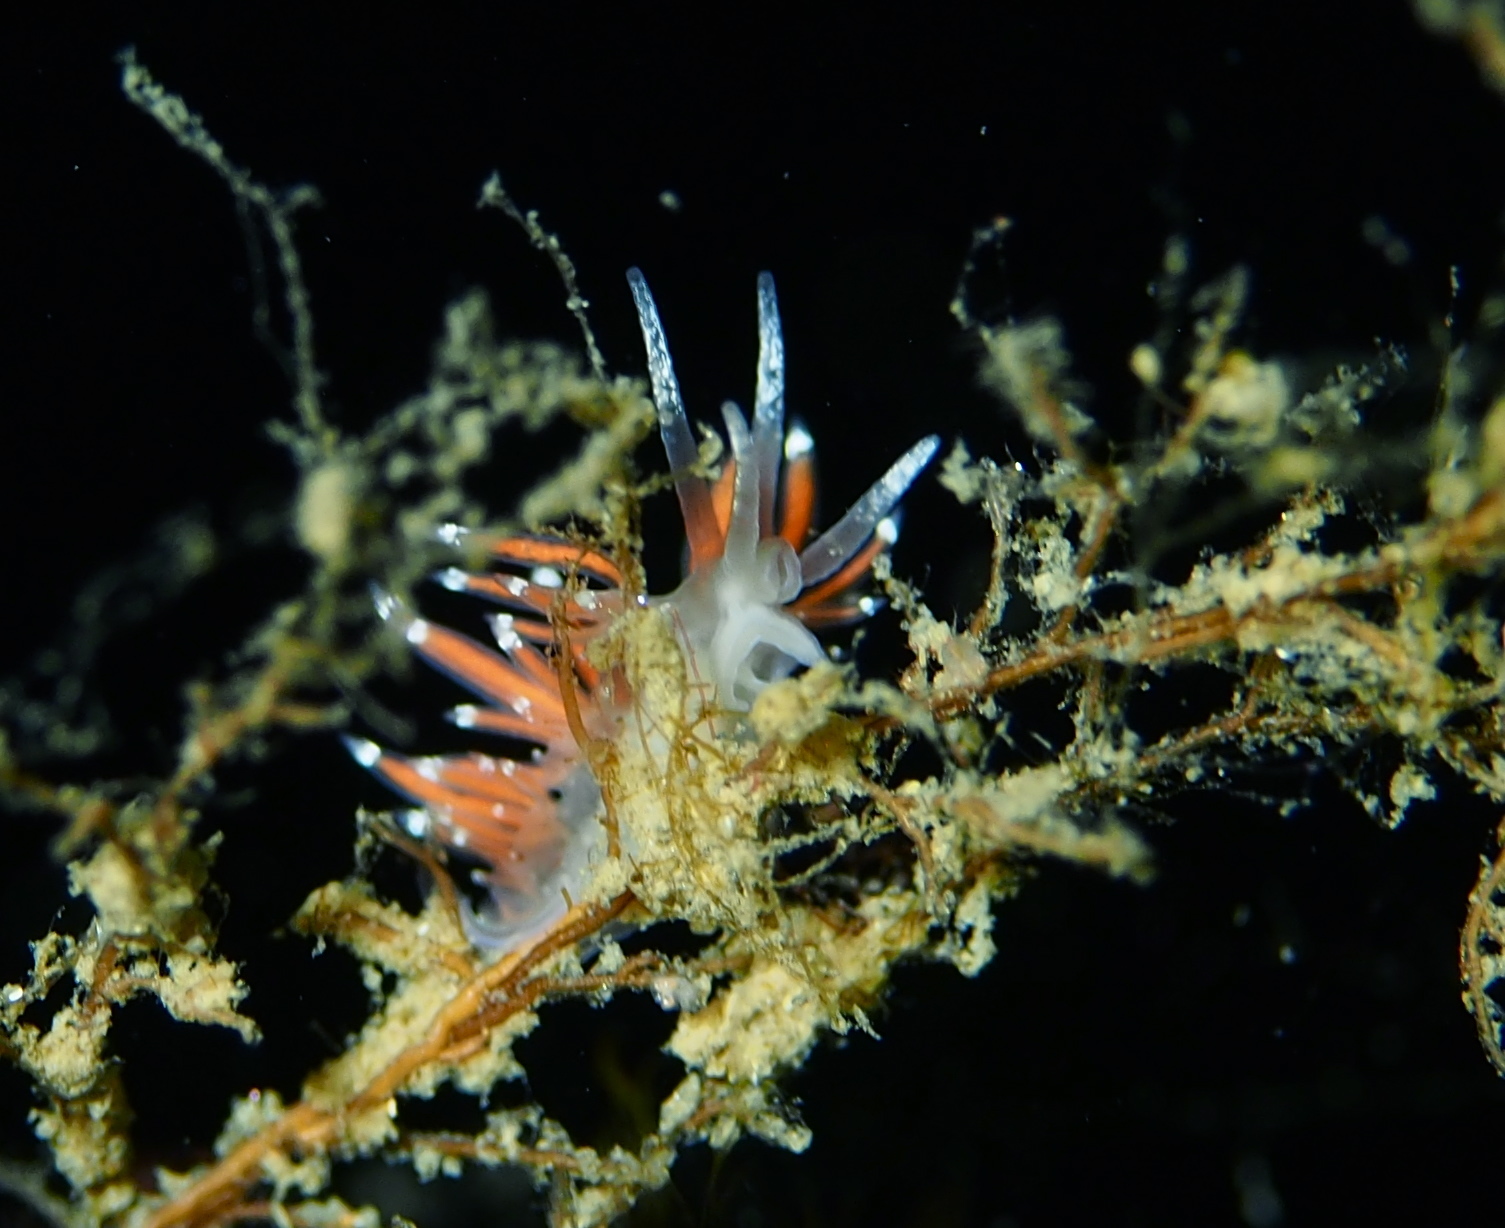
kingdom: Animalia
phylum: Mollusca
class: Gastropoda
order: Nudibranchia
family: Coryphellidae
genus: Coryphella
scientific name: Coryphella gracilis
